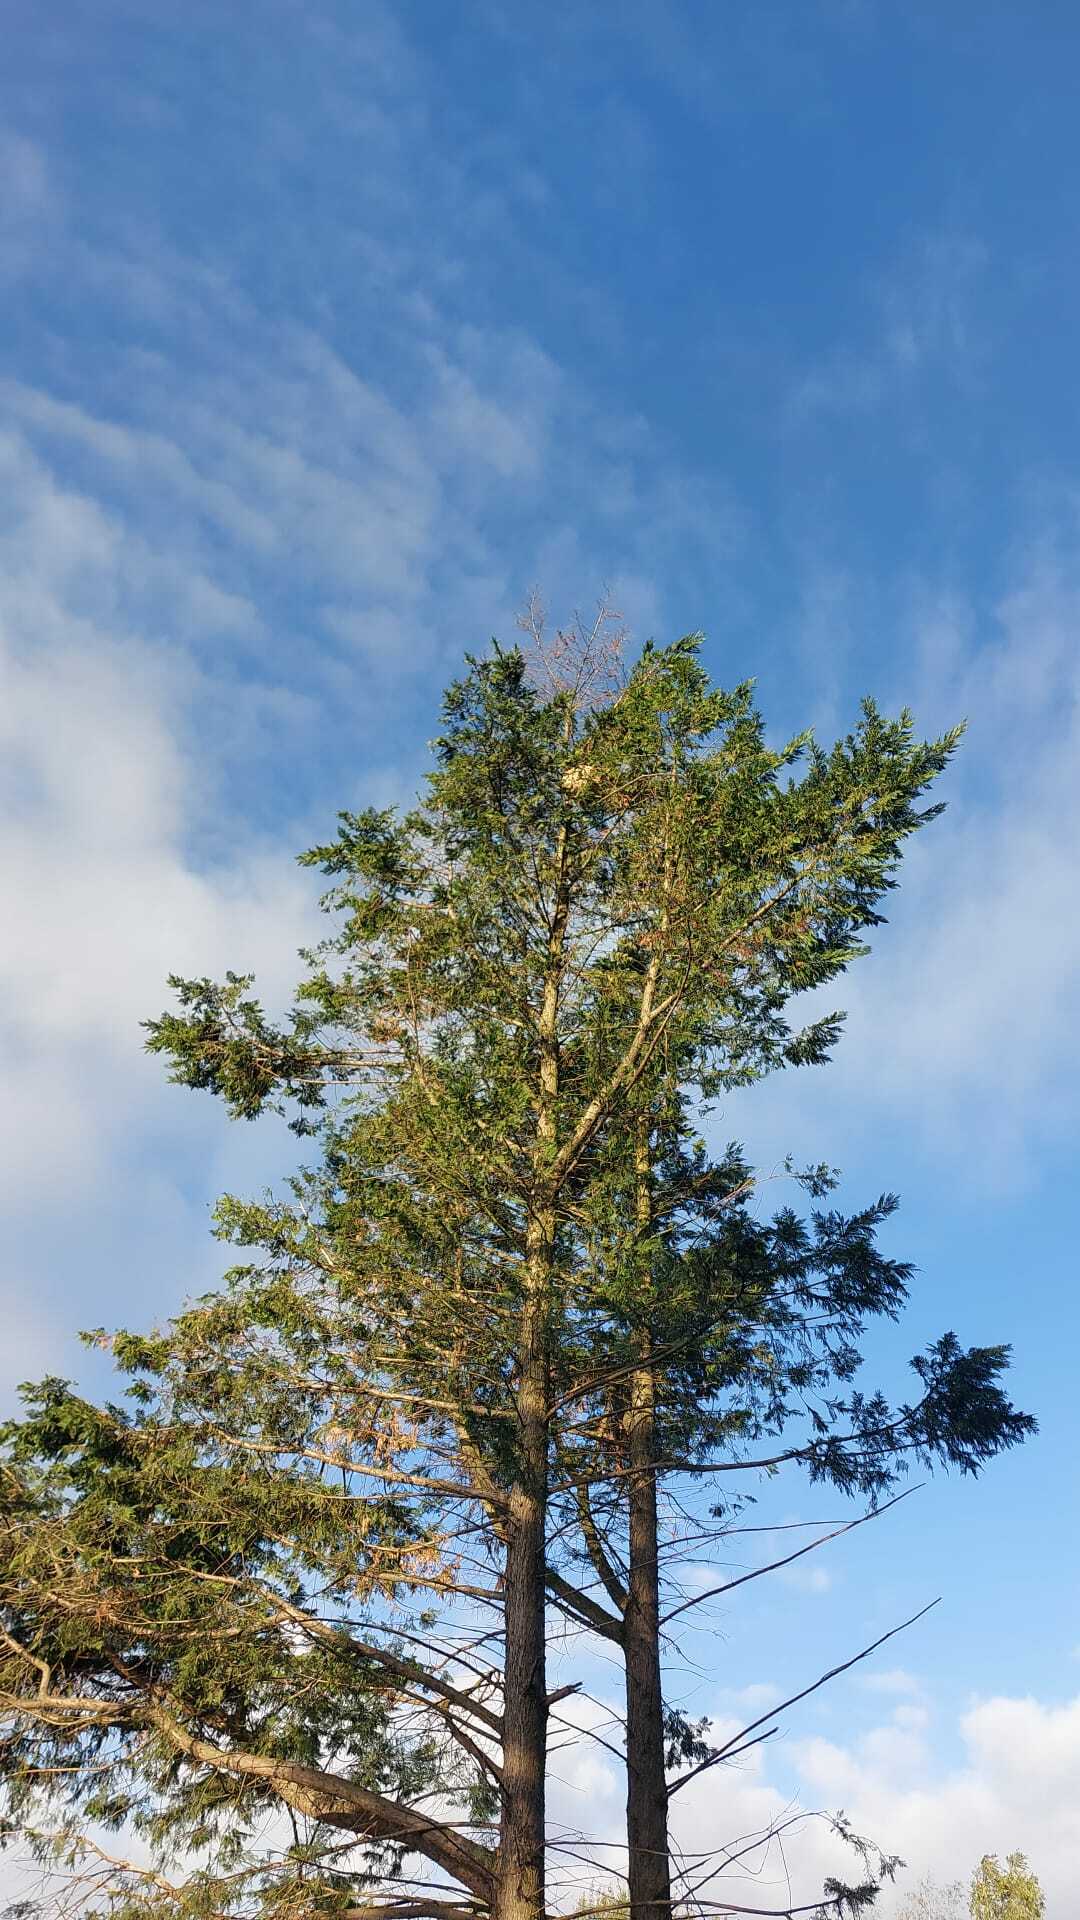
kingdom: Animalia
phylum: Arthropoda
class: Insecta
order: Hymenoptera
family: Vespidae
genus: Vespa
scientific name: Vespa velutina
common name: Asian hornet
